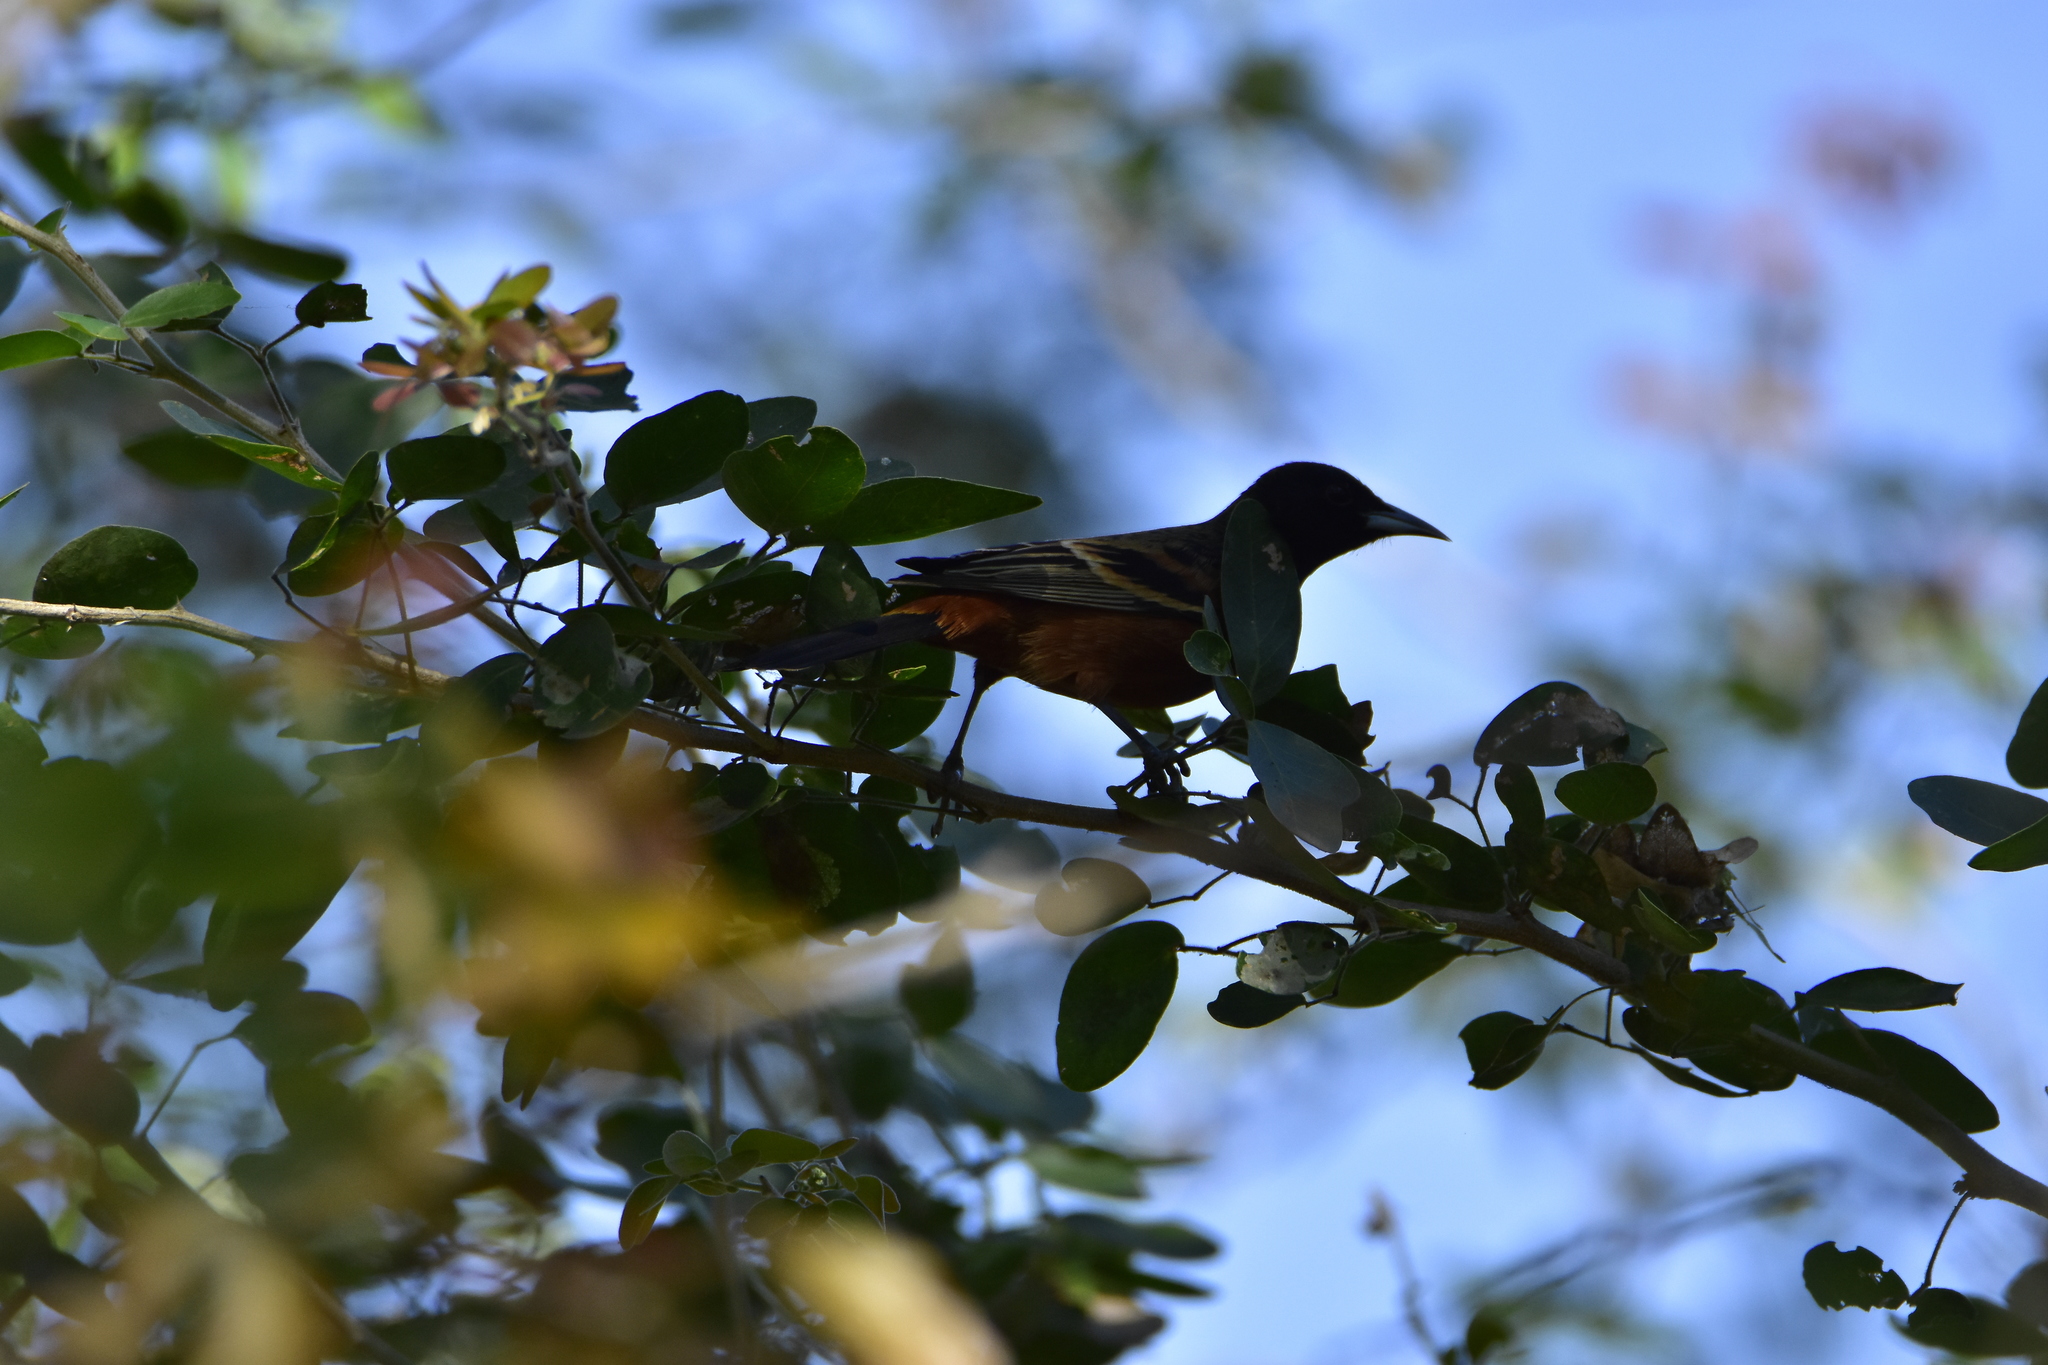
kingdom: Animalia
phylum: Chordata
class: Aves
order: Passeriformes
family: Icteridae
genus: Icterus
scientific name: Icterus spurius
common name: Orchard oriole
